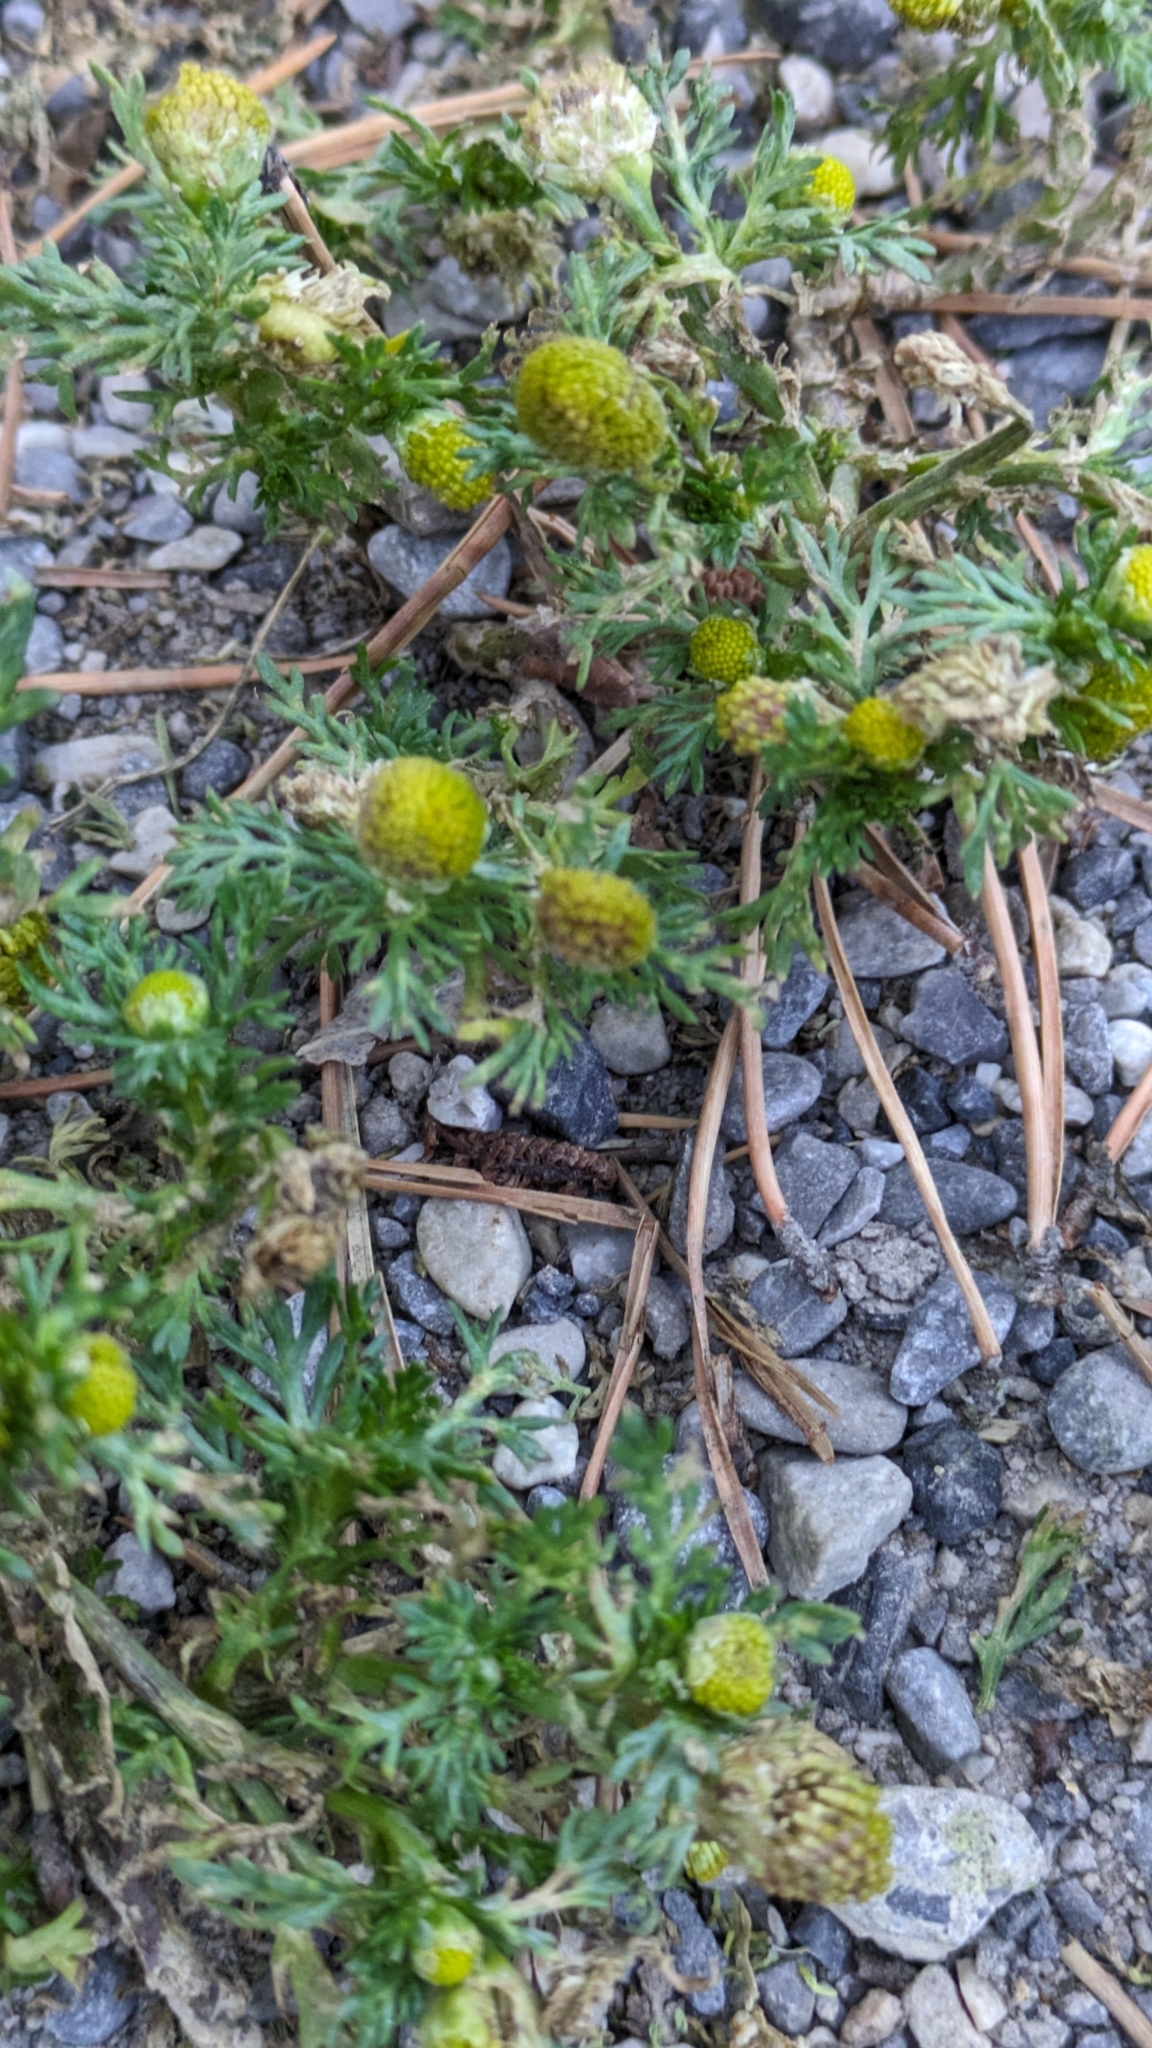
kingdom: Plantae
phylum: Tracheophyta
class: Magnoliopsida
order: Asterales
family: Asteraceae
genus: Matricaria
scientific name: Matricaria discoidea
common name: Disc mayweed
